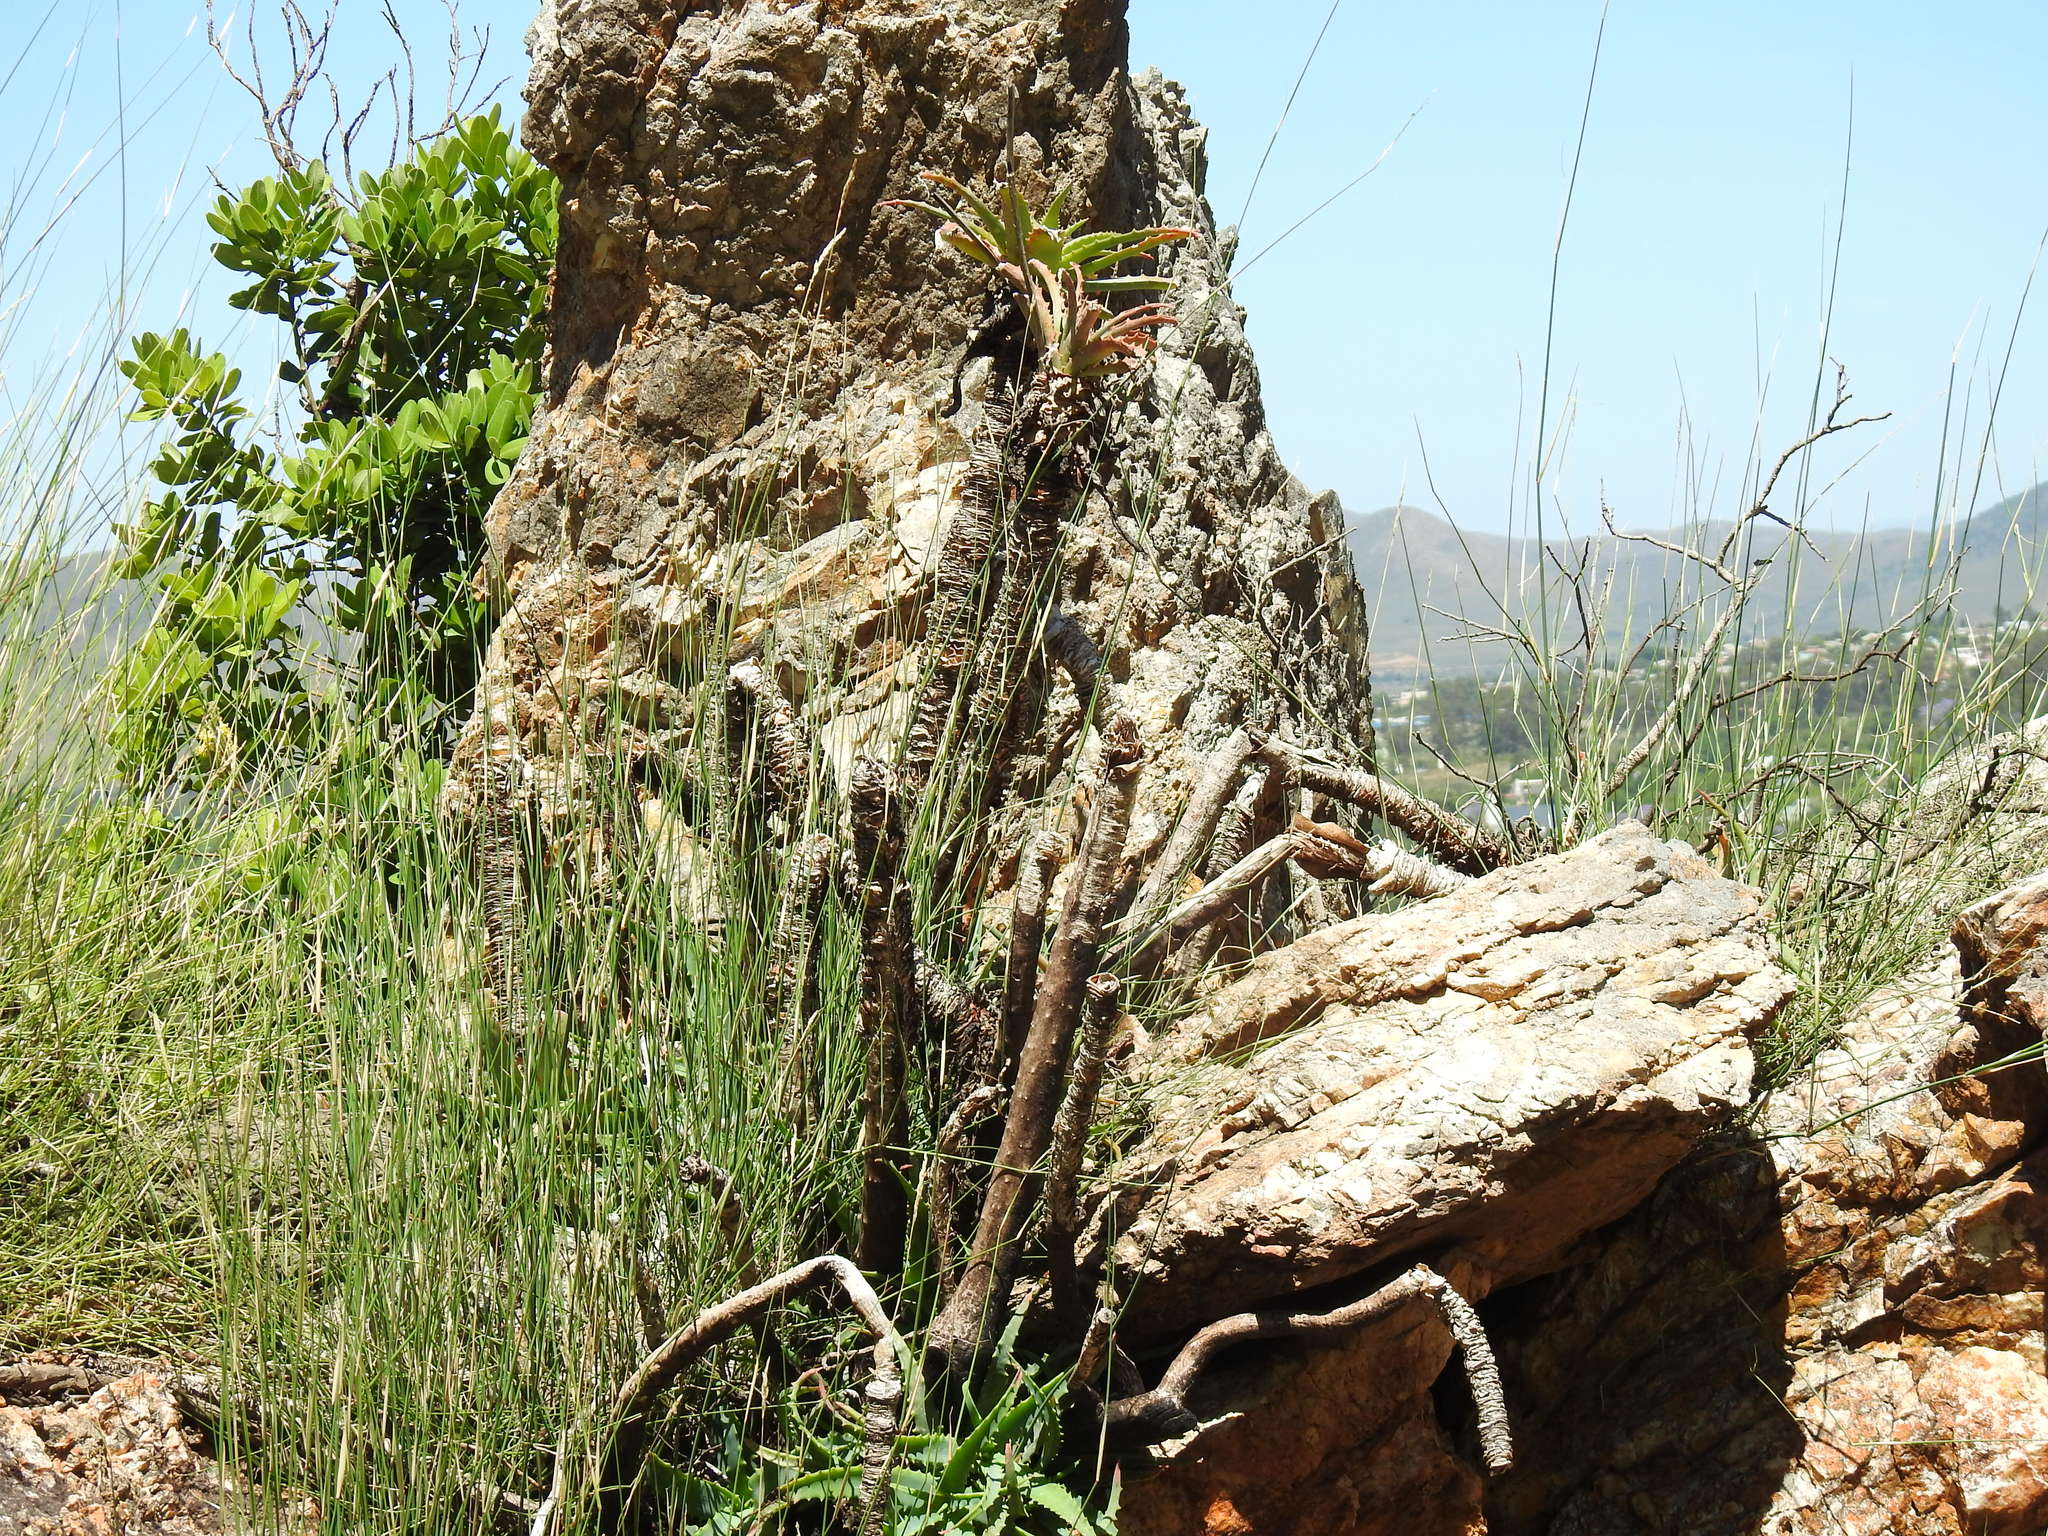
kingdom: Plantae
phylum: Tracheophyta
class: Liliopsida
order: Asparagales
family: Asphodelaceae
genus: Aloe
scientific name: Aloe arborescens
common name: Candelabra aloe
